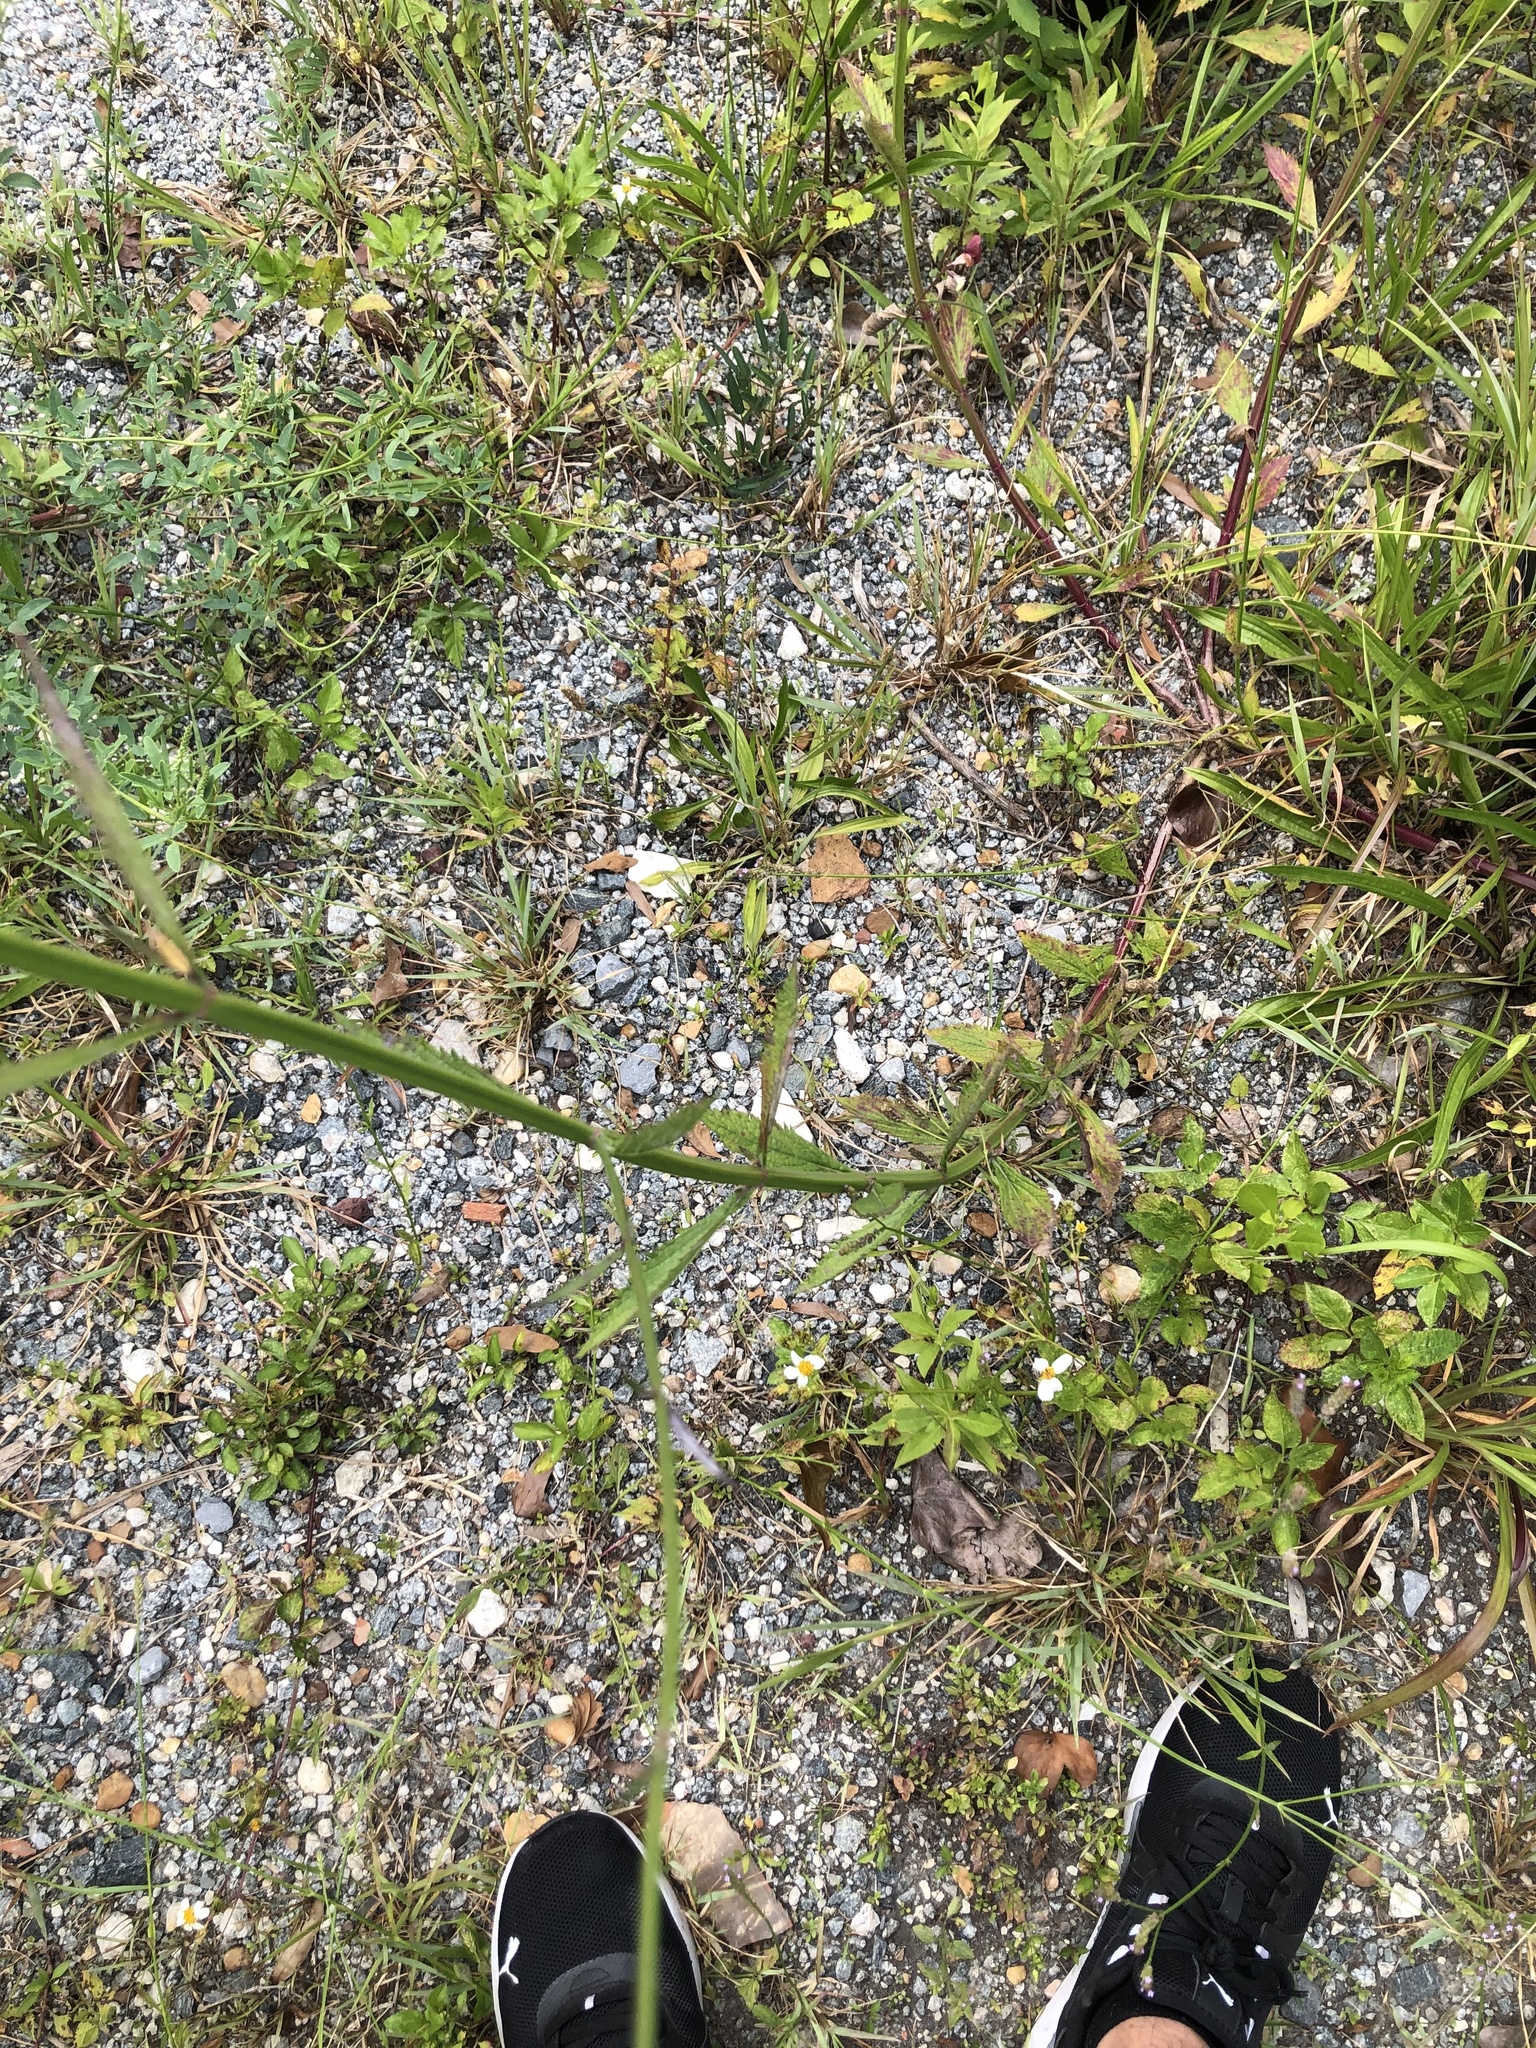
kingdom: Plantae
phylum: Tracheophyta
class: Magnoliopsida
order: Lamiales
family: Verbenaceae
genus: Verbena
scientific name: Verbena brasiliensis
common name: Brazilian vervain
